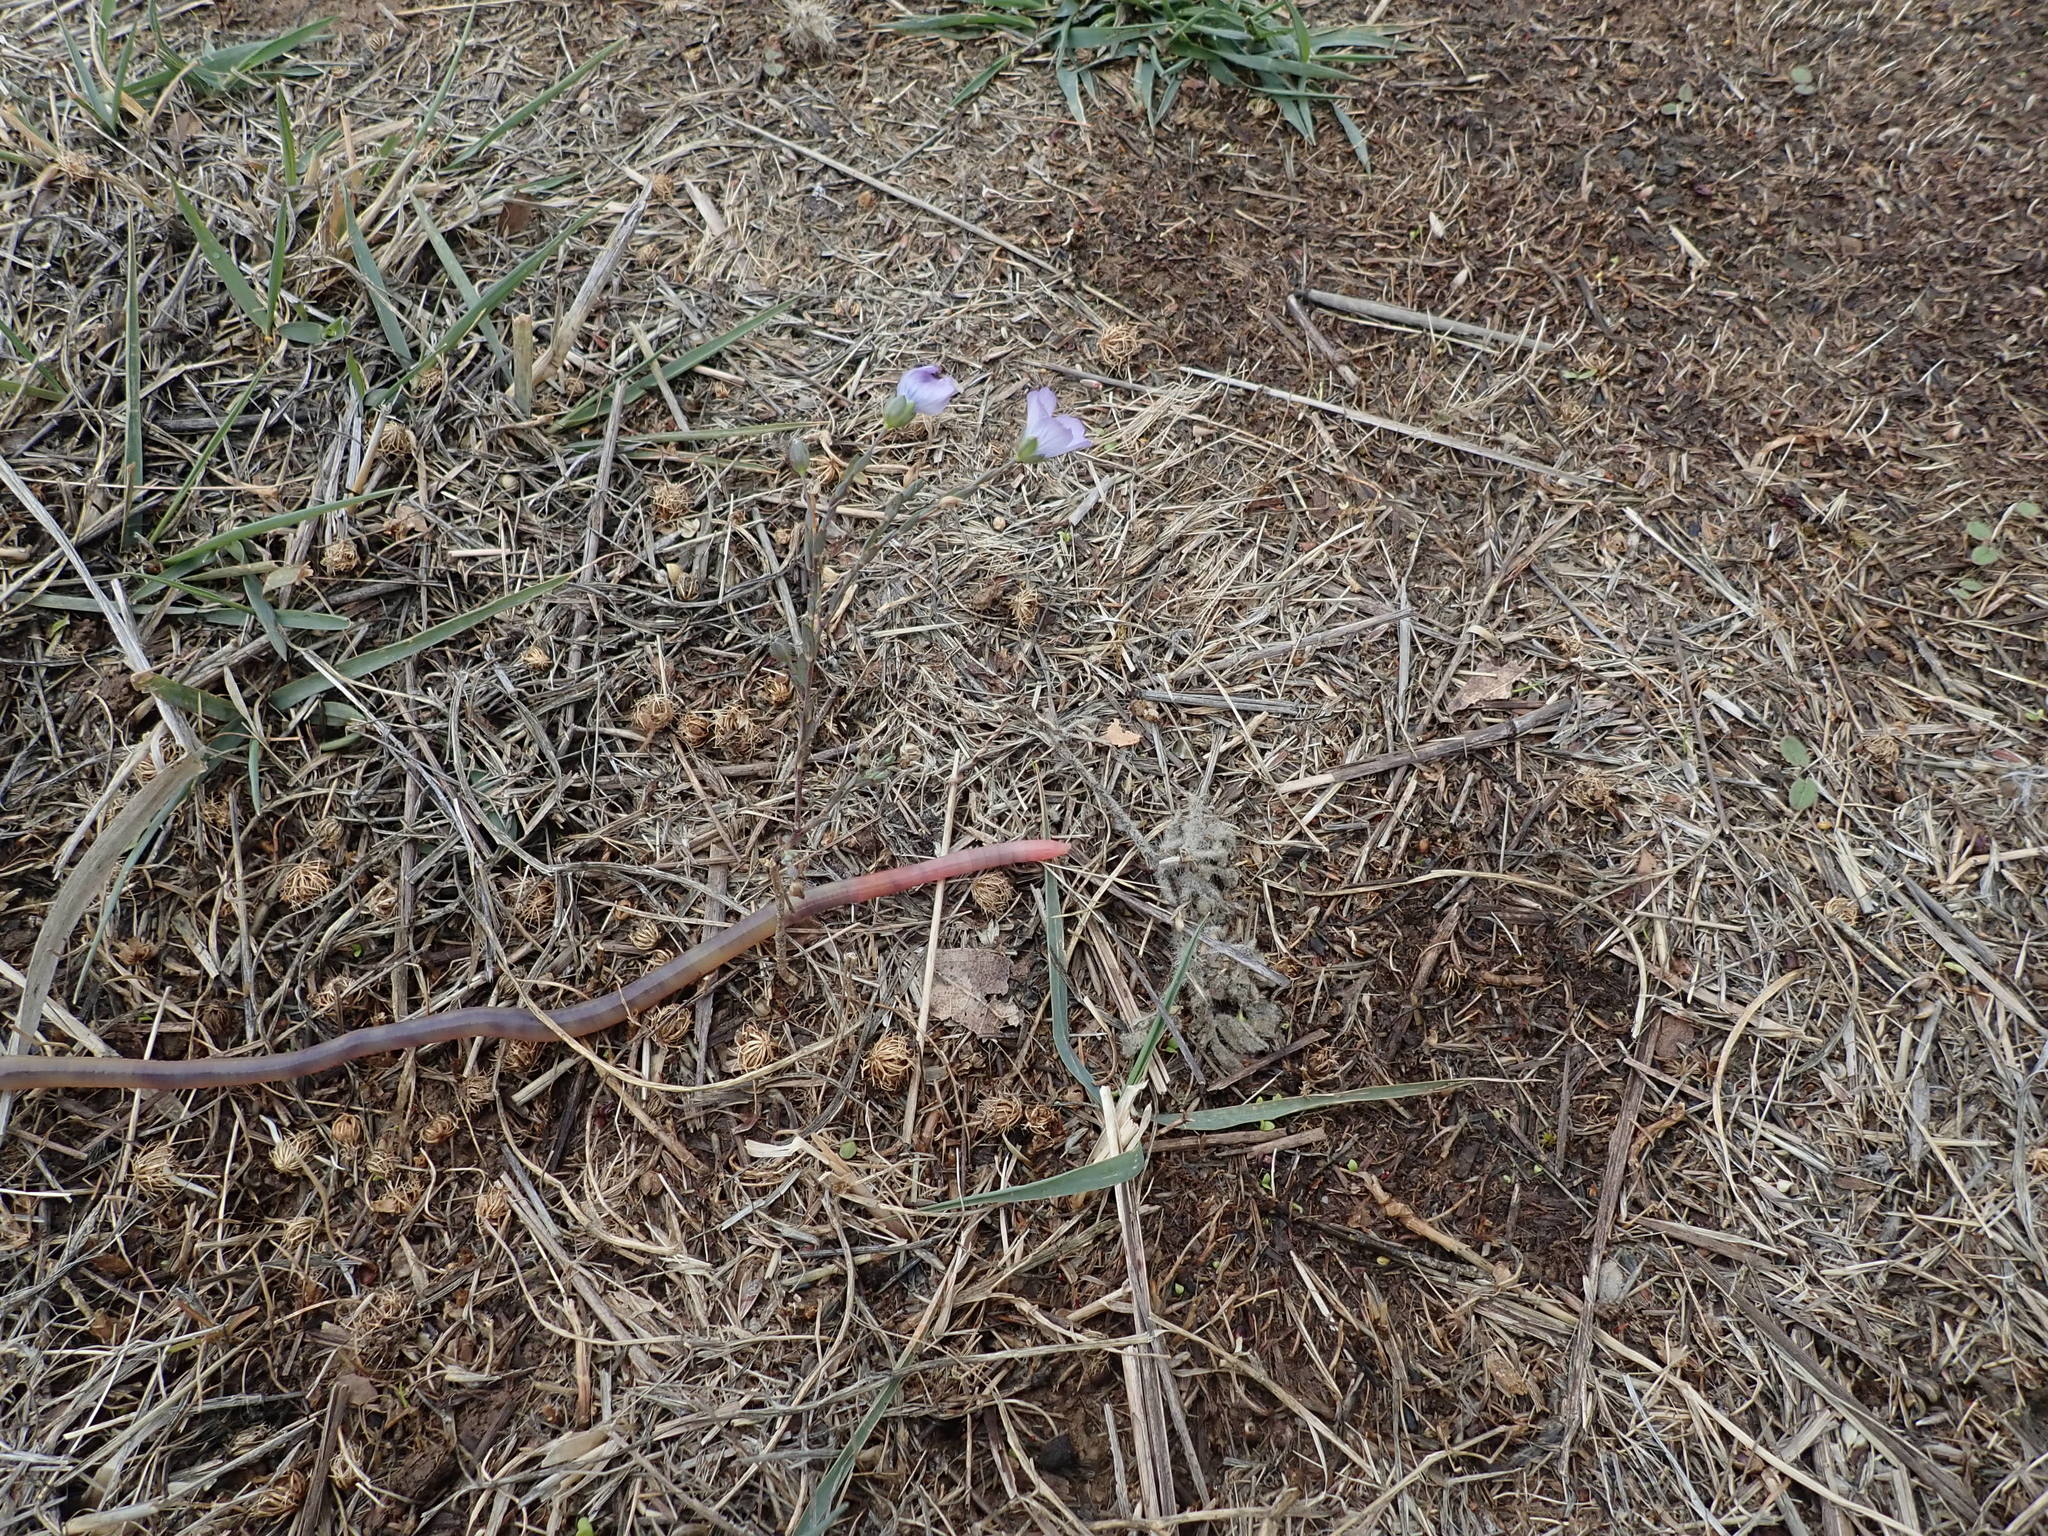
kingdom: Plantae
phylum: Tracheophyta
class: Magnoliopsida
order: Malpighiales
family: Linaceae
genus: Linum
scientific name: Linum bienne
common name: Pale flax
